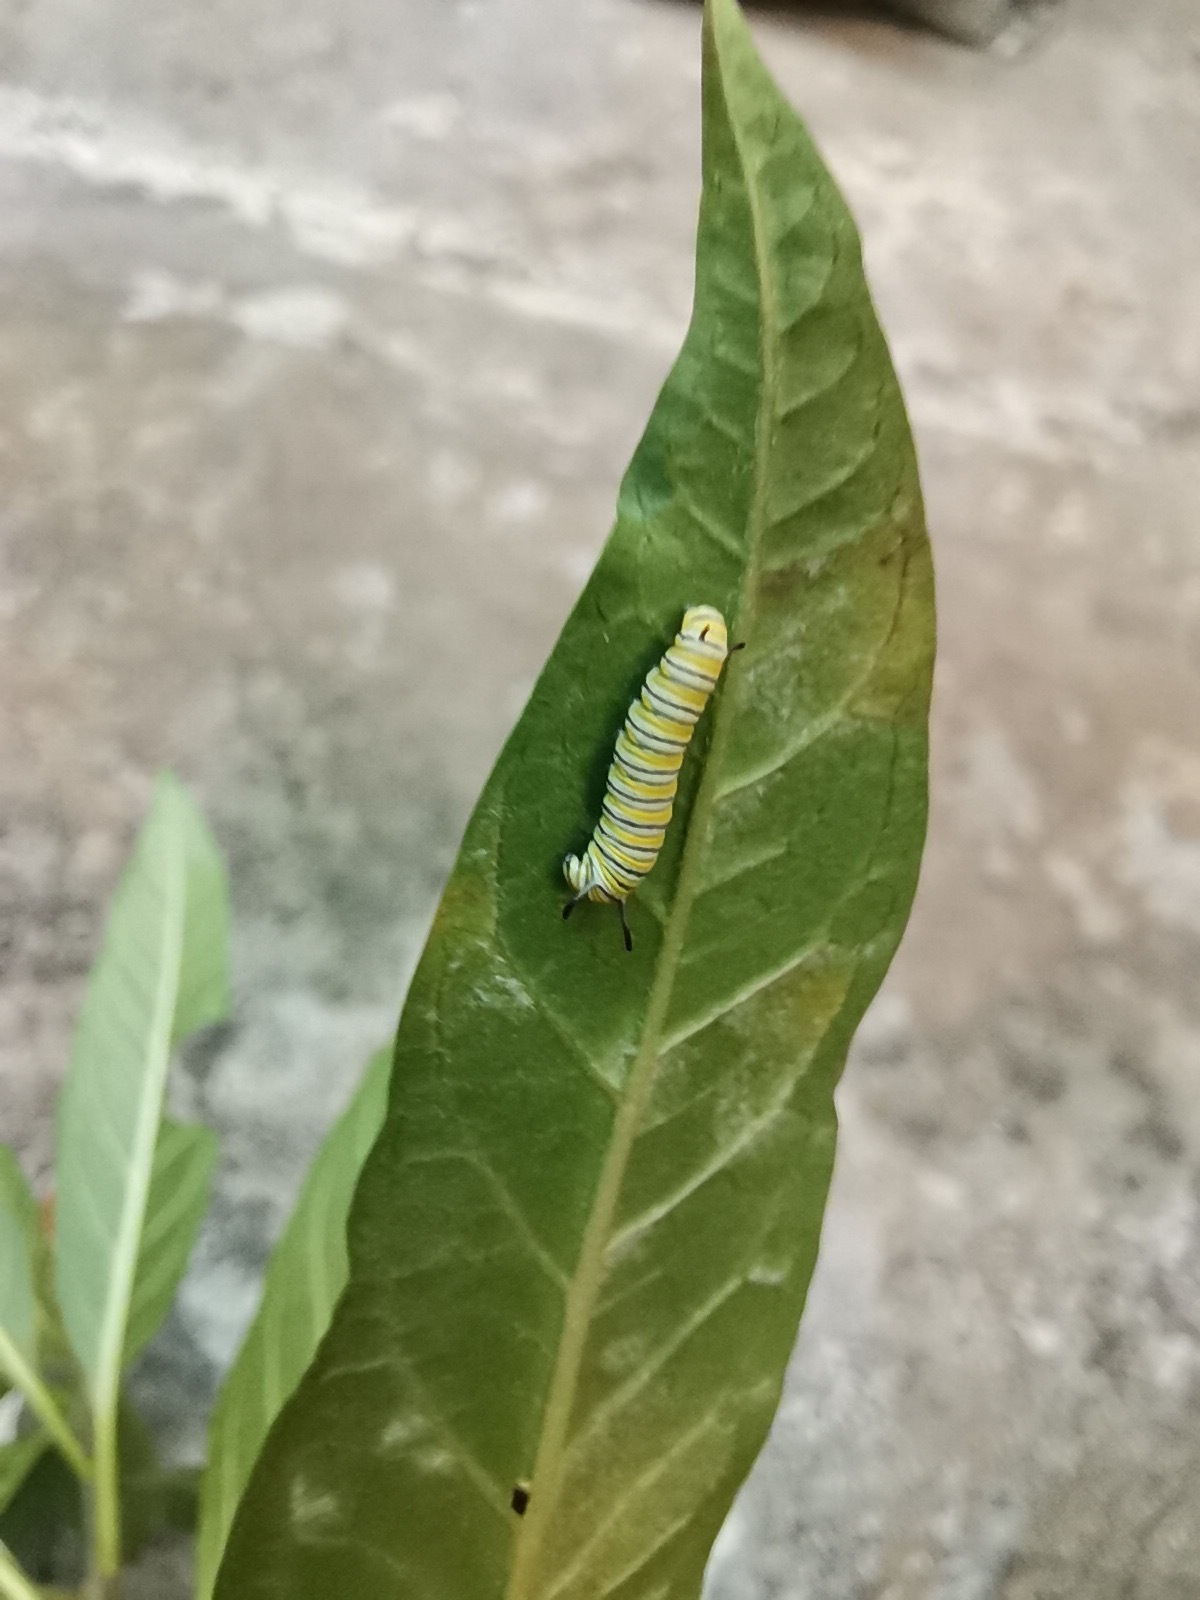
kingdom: Animalia
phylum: Arthropoda
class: Insecta
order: Lepidoptera
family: Nymphalidae
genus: Danaus
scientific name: Danaus plexippus
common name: Monarch
